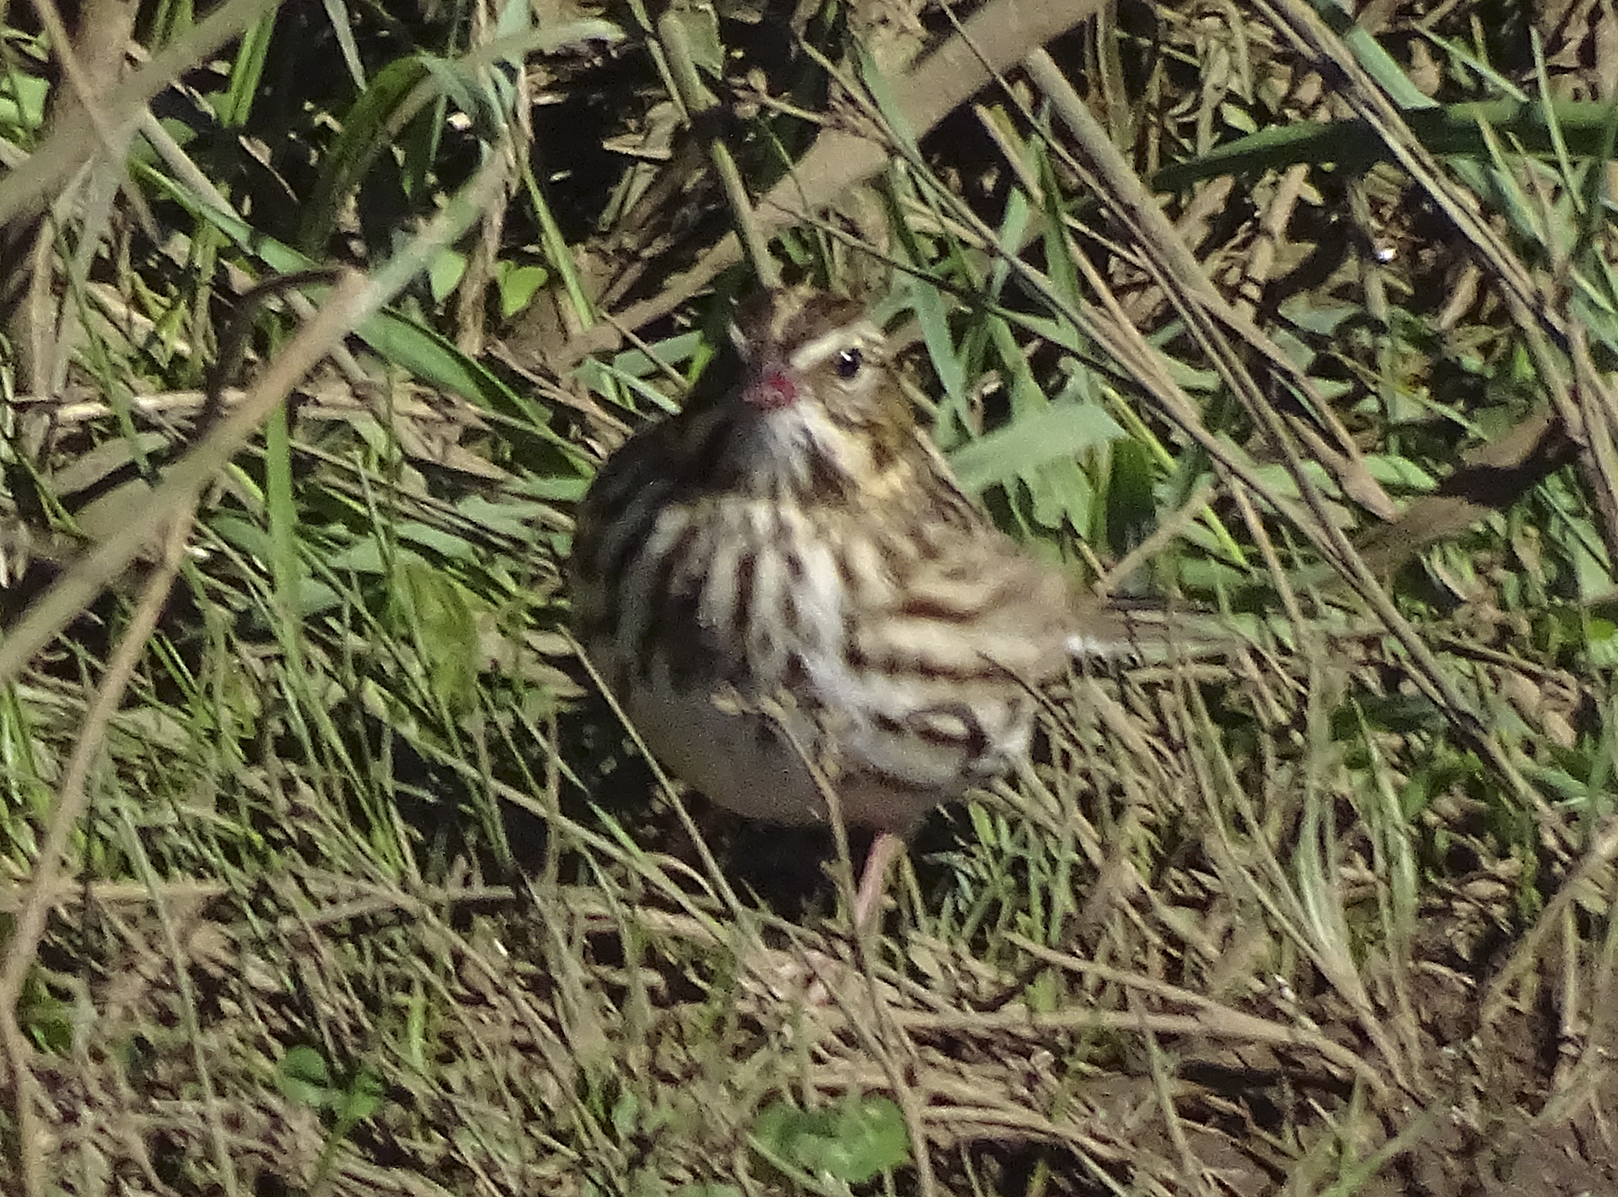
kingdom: Animalia
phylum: Chordata
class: Aves
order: Passeriformes
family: Passerellidae
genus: Passerculus
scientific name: Passerculus sandwichensis
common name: Savannah sparrow
